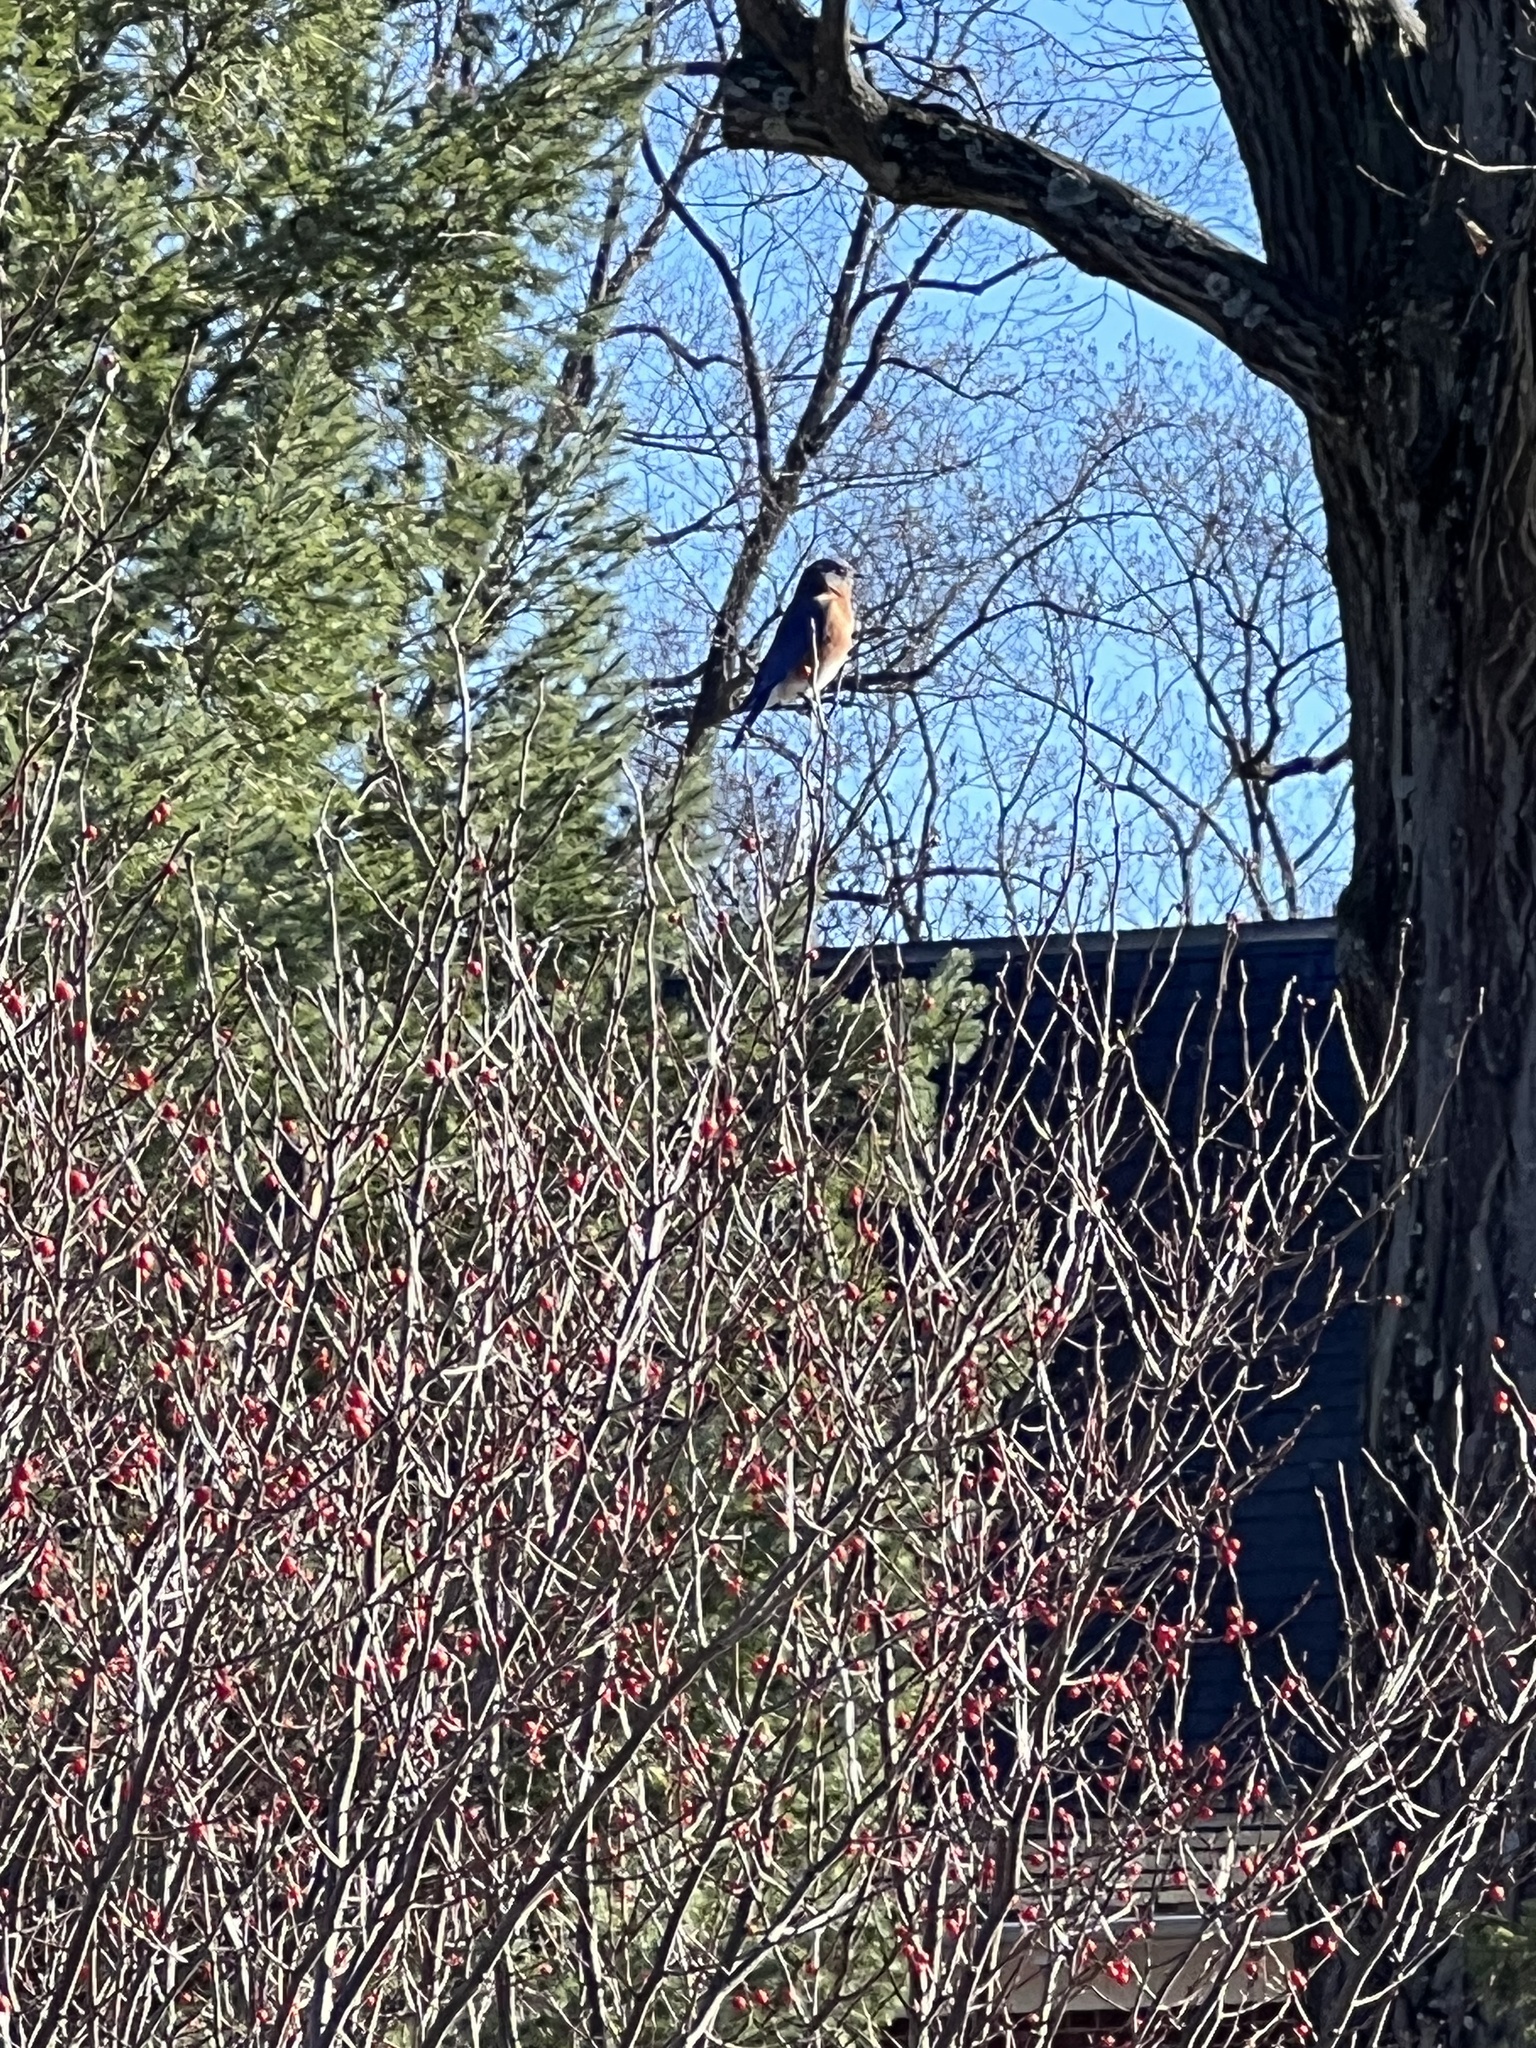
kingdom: Animalia
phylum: Chordata
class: Aves
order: Passeriformes
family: Turdidae
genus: Sialia
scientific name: Sialia sialis
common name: Eastern bluebird
